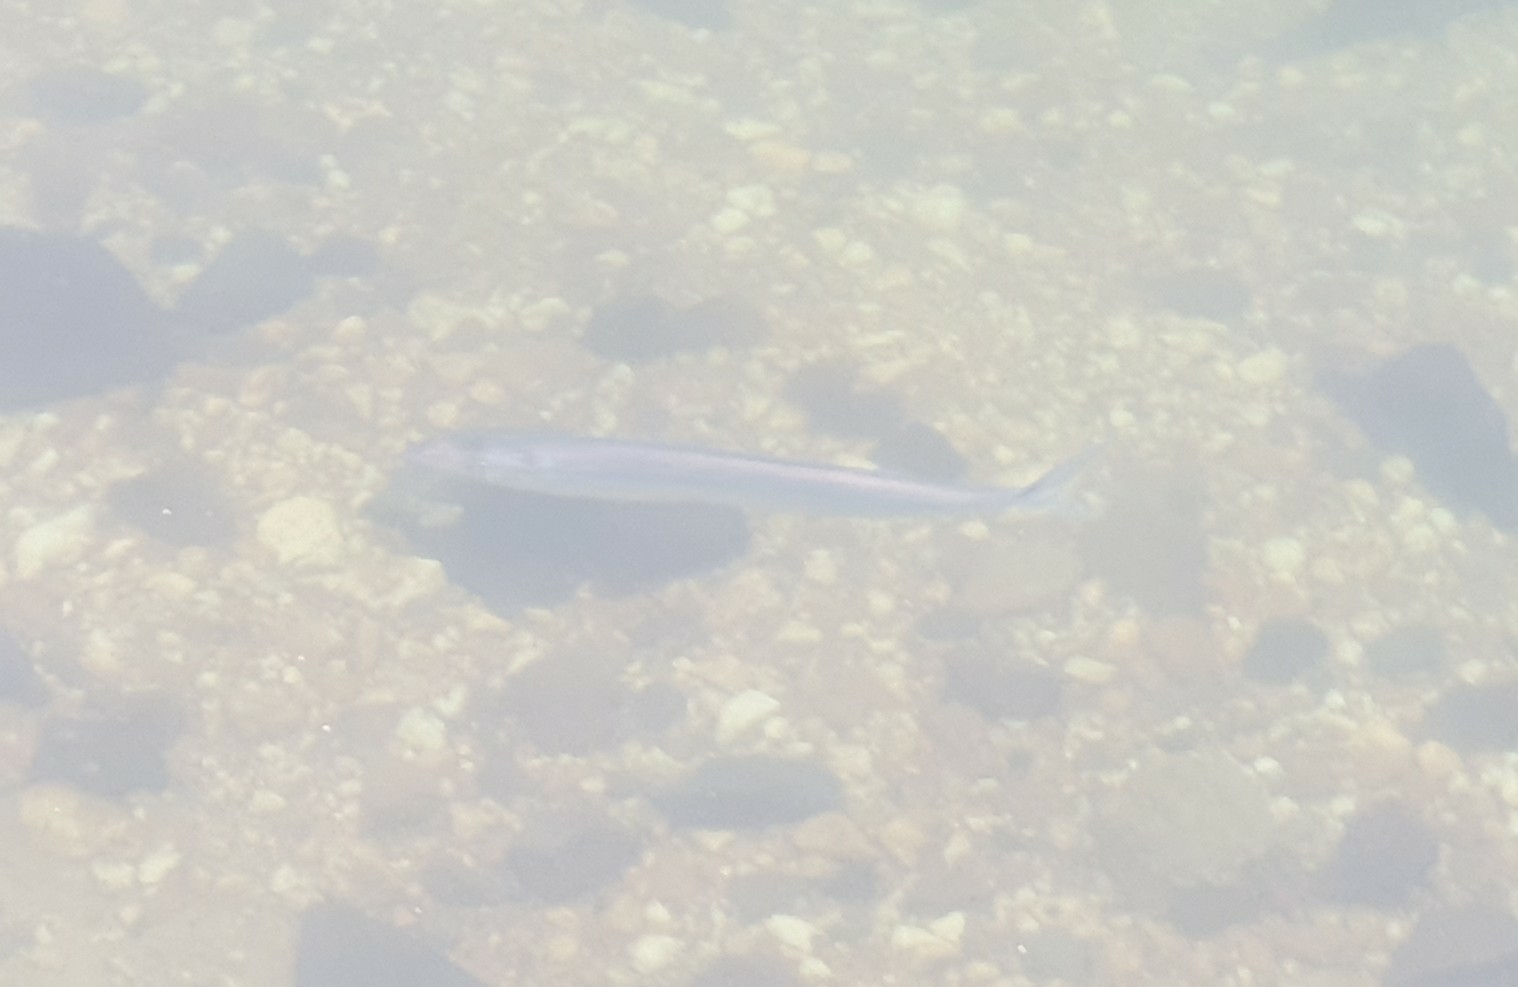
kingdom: Animalia
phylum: Chordata
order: Perciformes
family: Gempylidae
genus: Thyrsites
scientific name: Thyrsites atun
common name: Snoek
